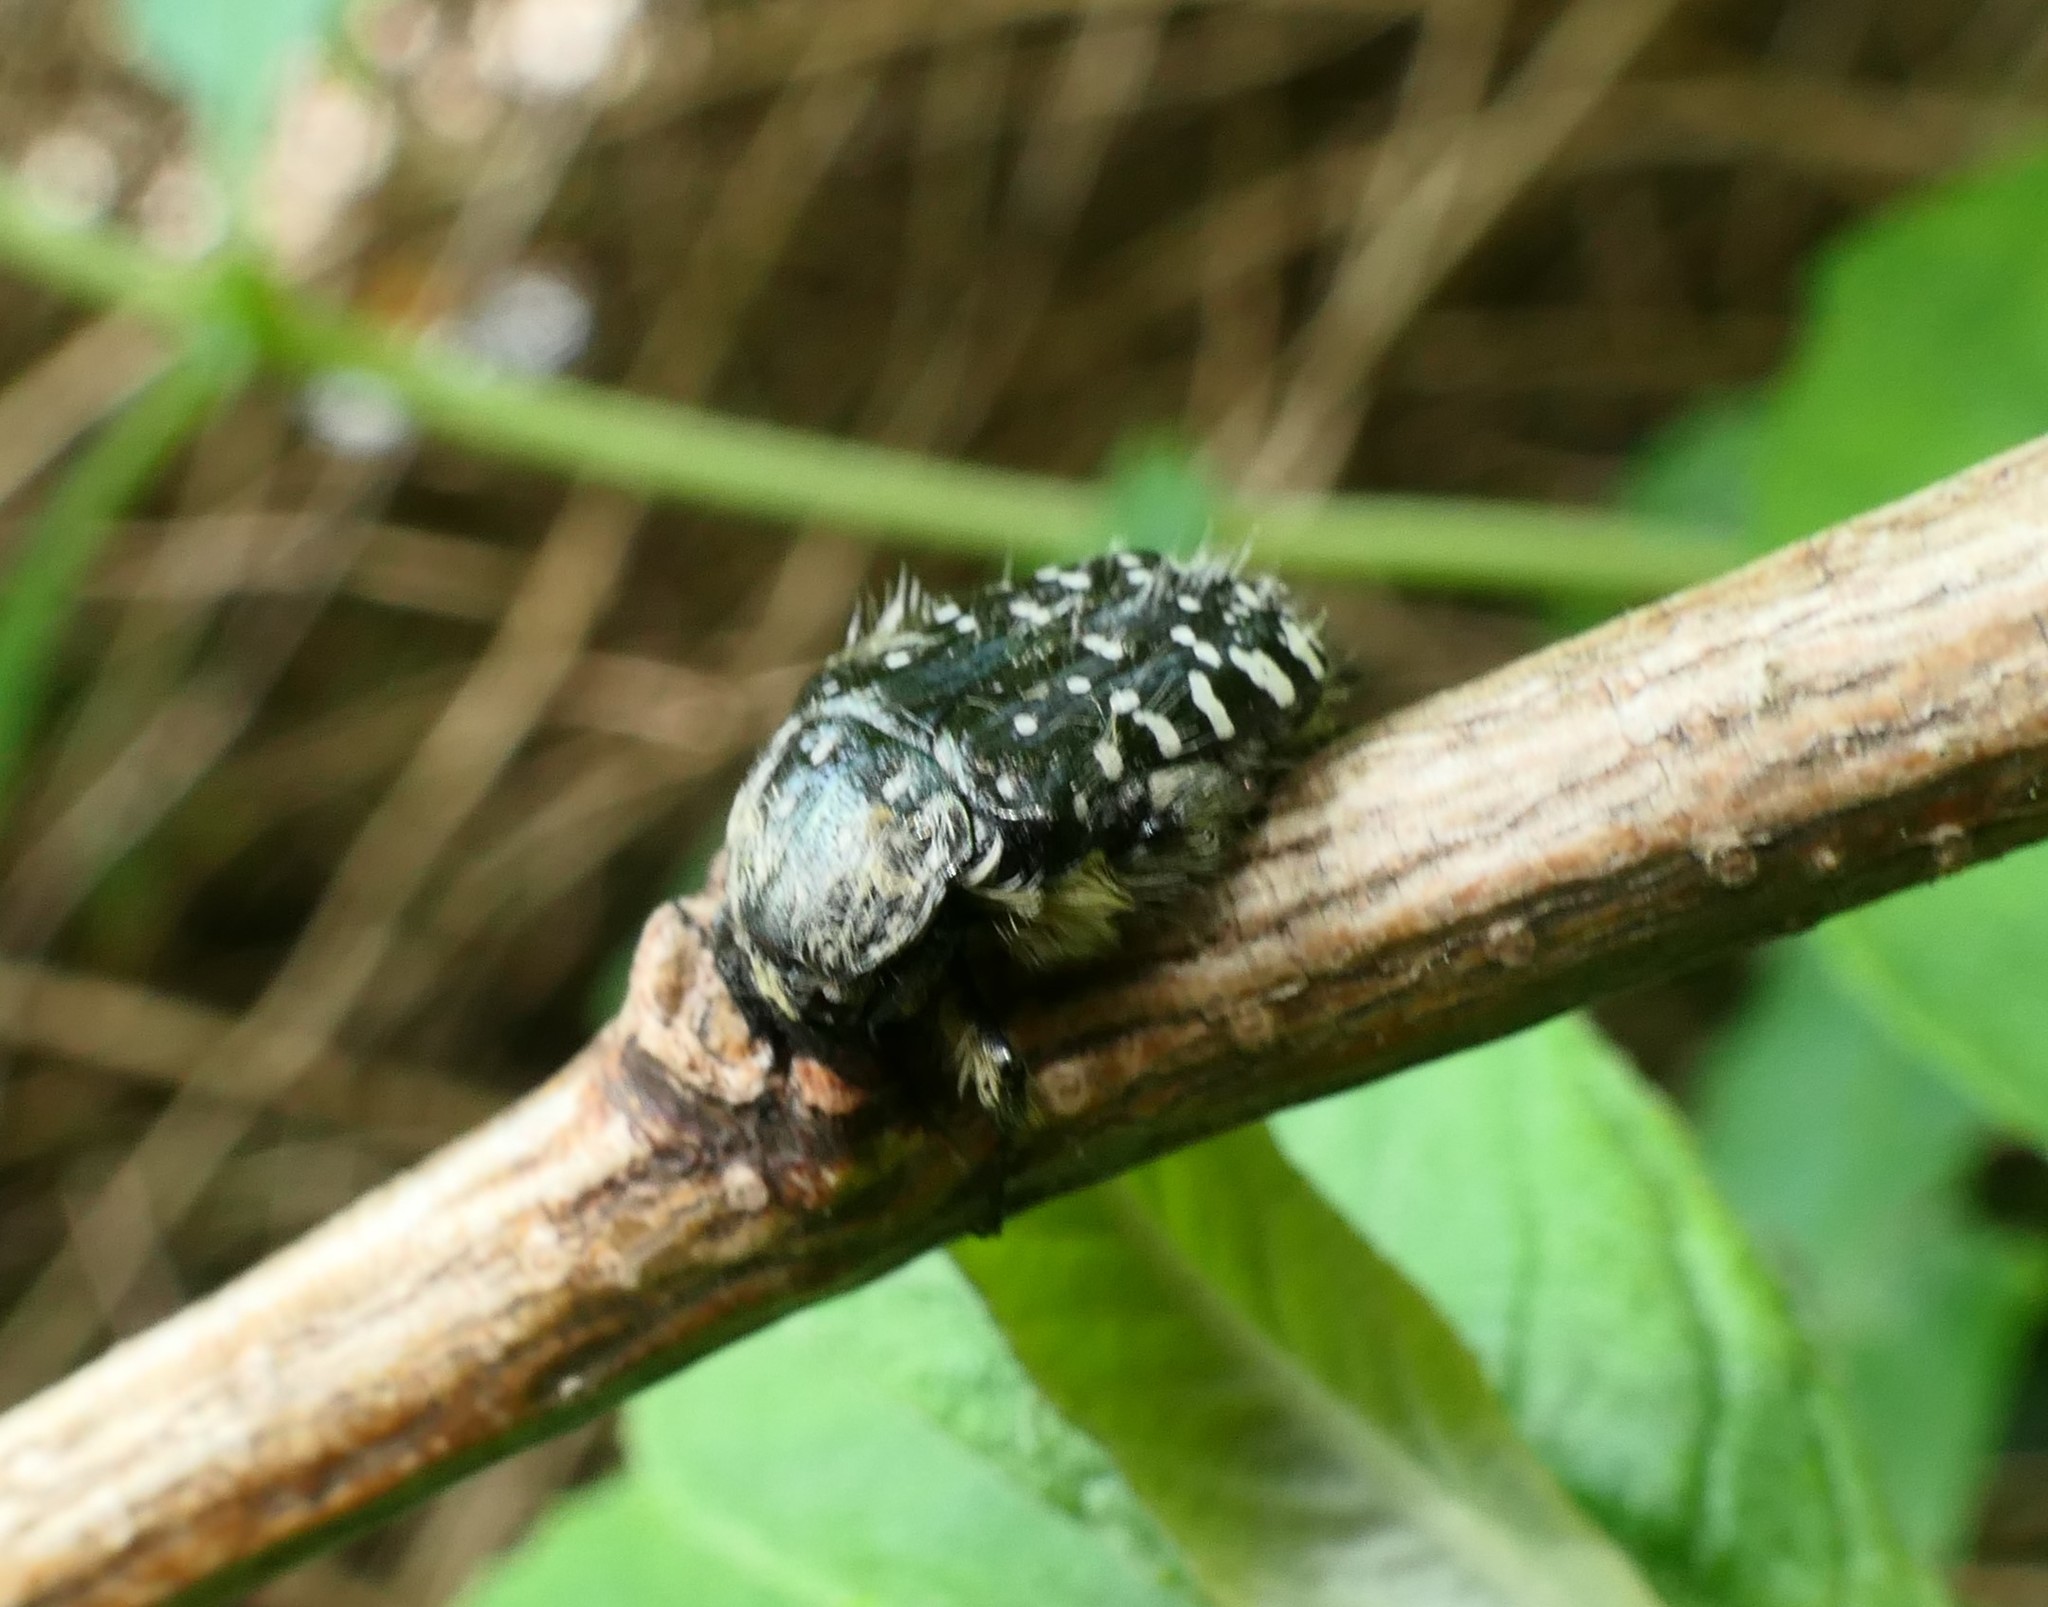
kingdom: Animalia
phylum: Arthropoda
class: Insecta
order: Coleoptera
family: Scarabaeidae
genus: Oxythyrea
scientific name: Oxythyrea funesta
